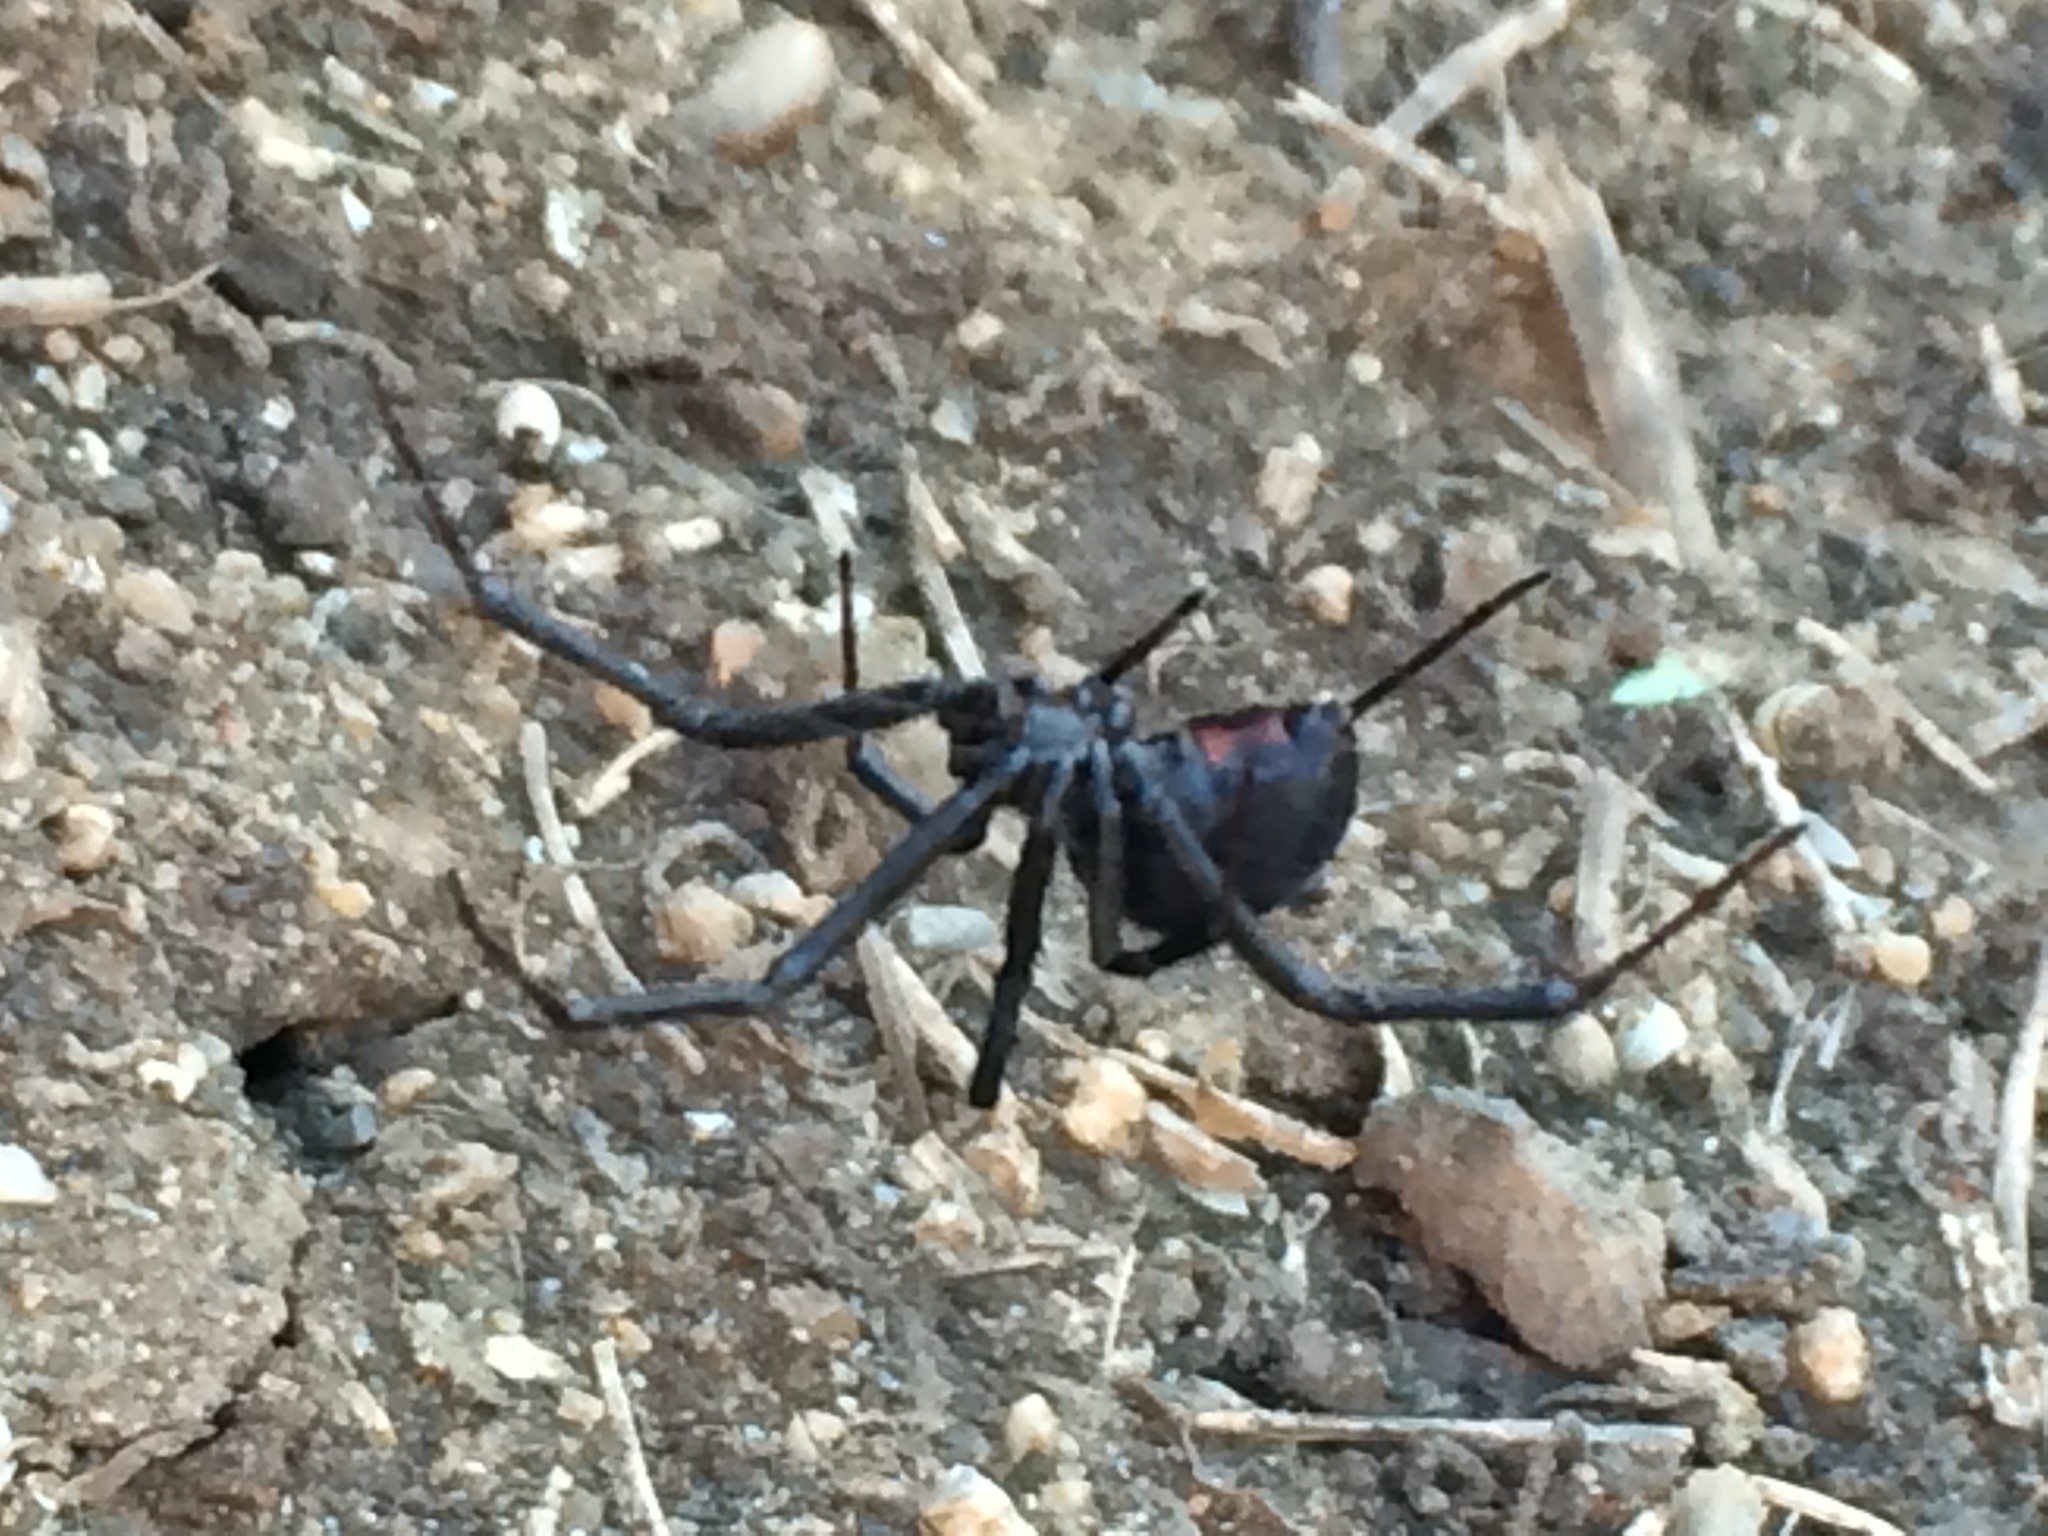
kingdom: Animalia
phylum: Arthropoda
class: Arachnida
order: Araneae
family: Theridiidae
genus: Latrodectus
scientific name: Latrodectus hesperus
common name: Western black widow
